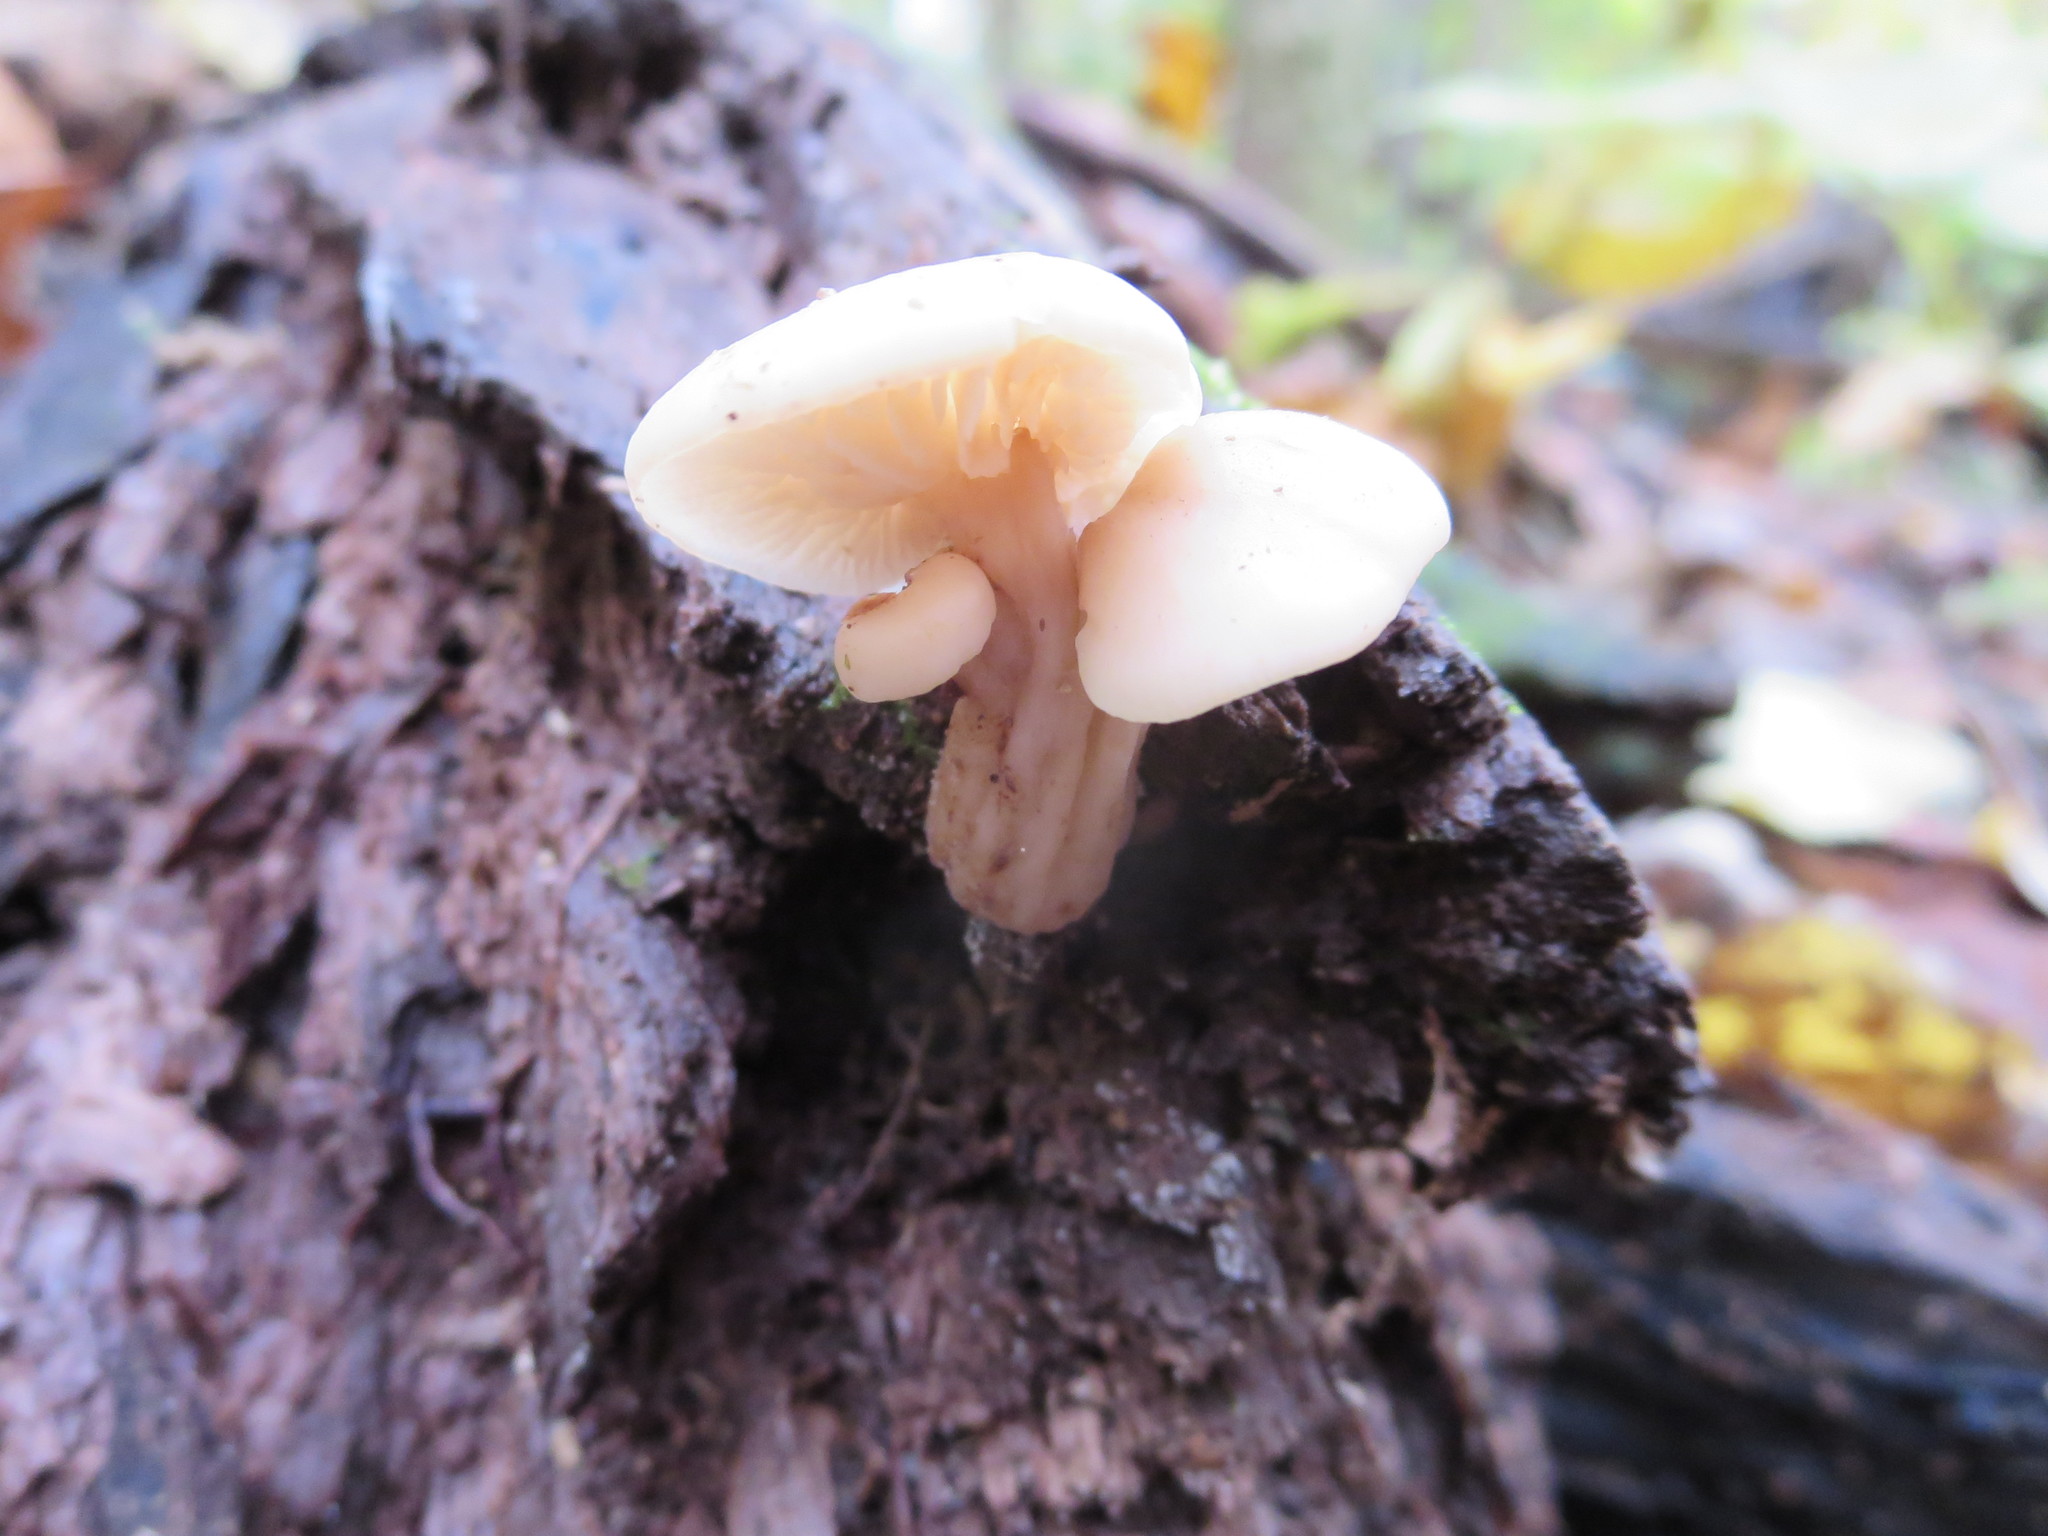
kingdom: Fungi
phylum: Basidiomycota
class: Agaricomycetes
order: Russulales
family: Auriscalpiaceae
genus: Lentinellus
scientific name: Lentinellus micheneri
